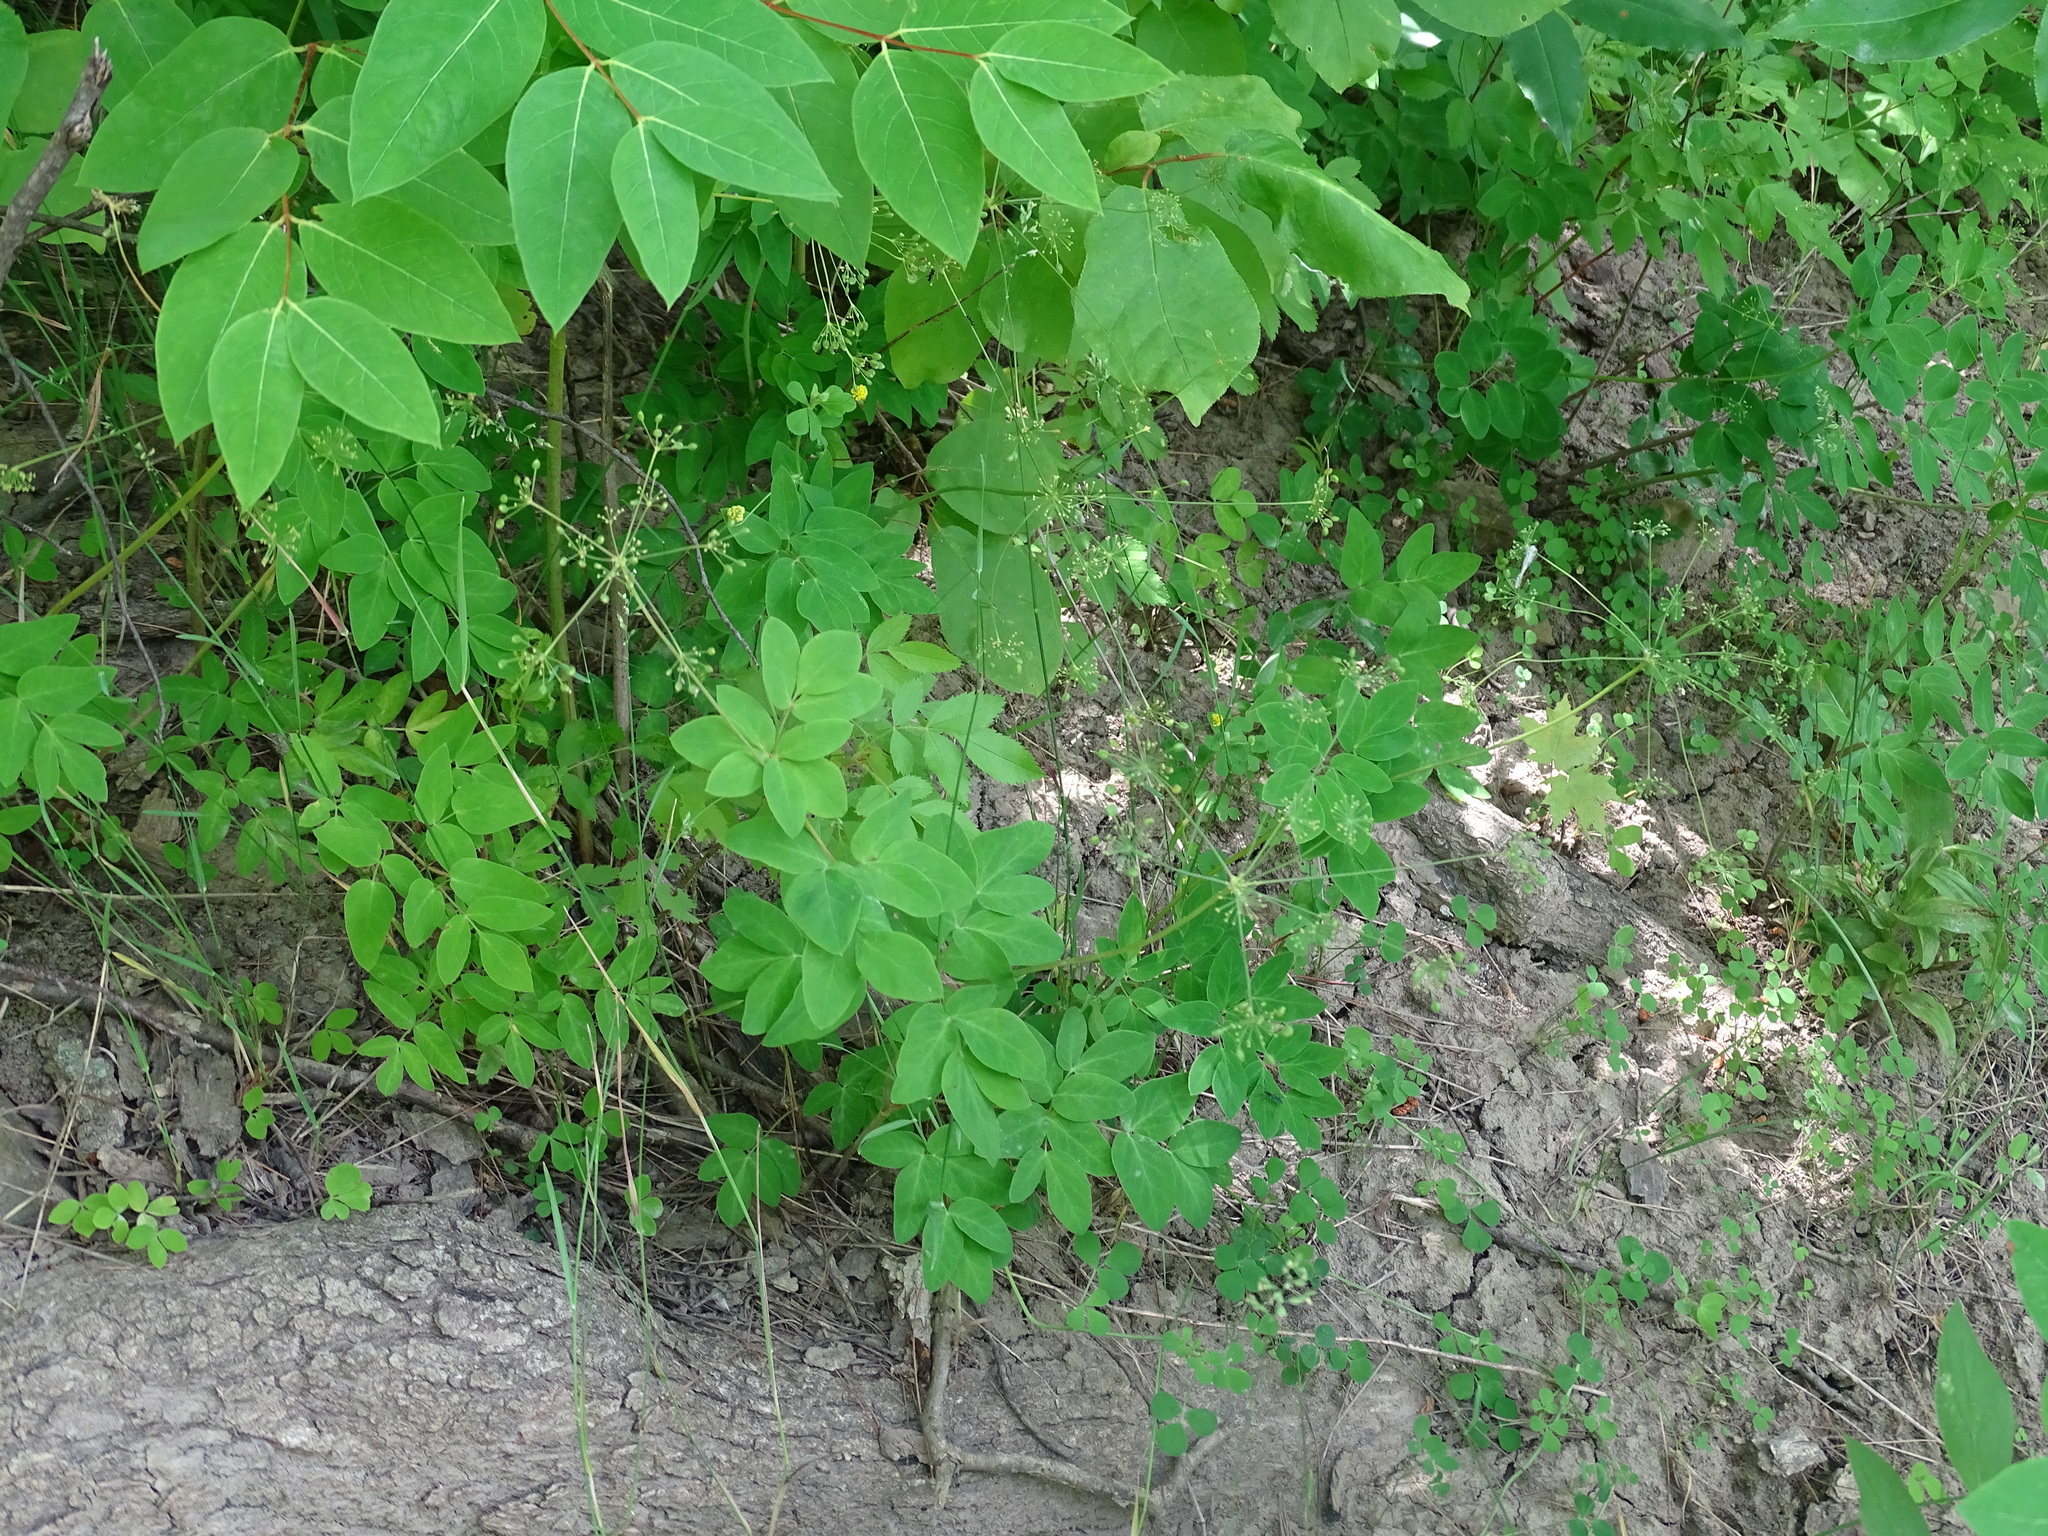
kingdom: Plantae
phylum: Tracheophyta
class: Magnoliopsida
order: Apiales
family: Apiaceae
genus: Taenidia
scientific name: Taenidia integerrima
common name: Golden alexander
